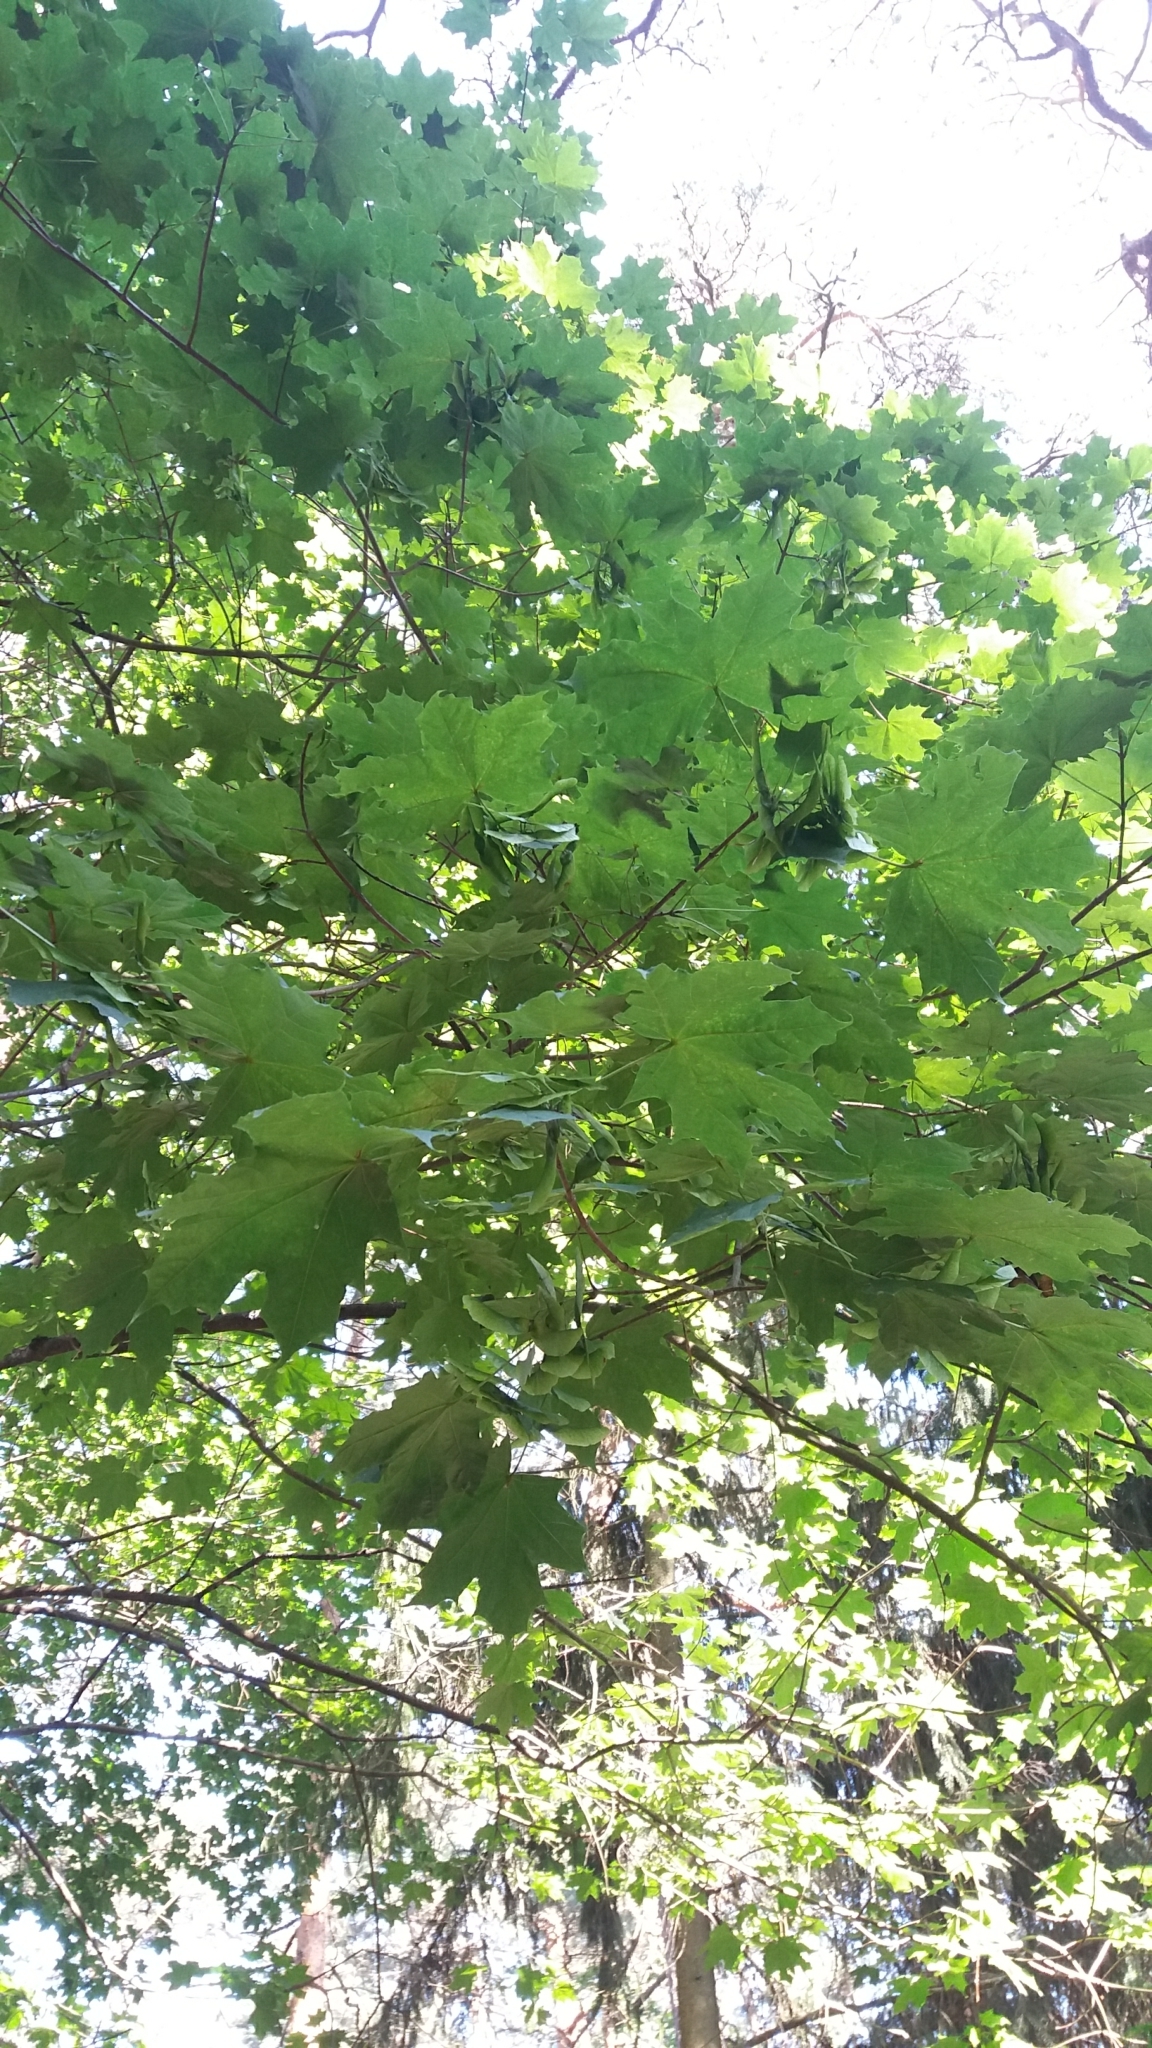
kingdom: Plantae
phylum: Tracheophyta
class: Magnoliopsida
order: Sapindales
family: Sapindaceae
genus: Acer
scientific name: Acer platanoides
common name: Norway maple
